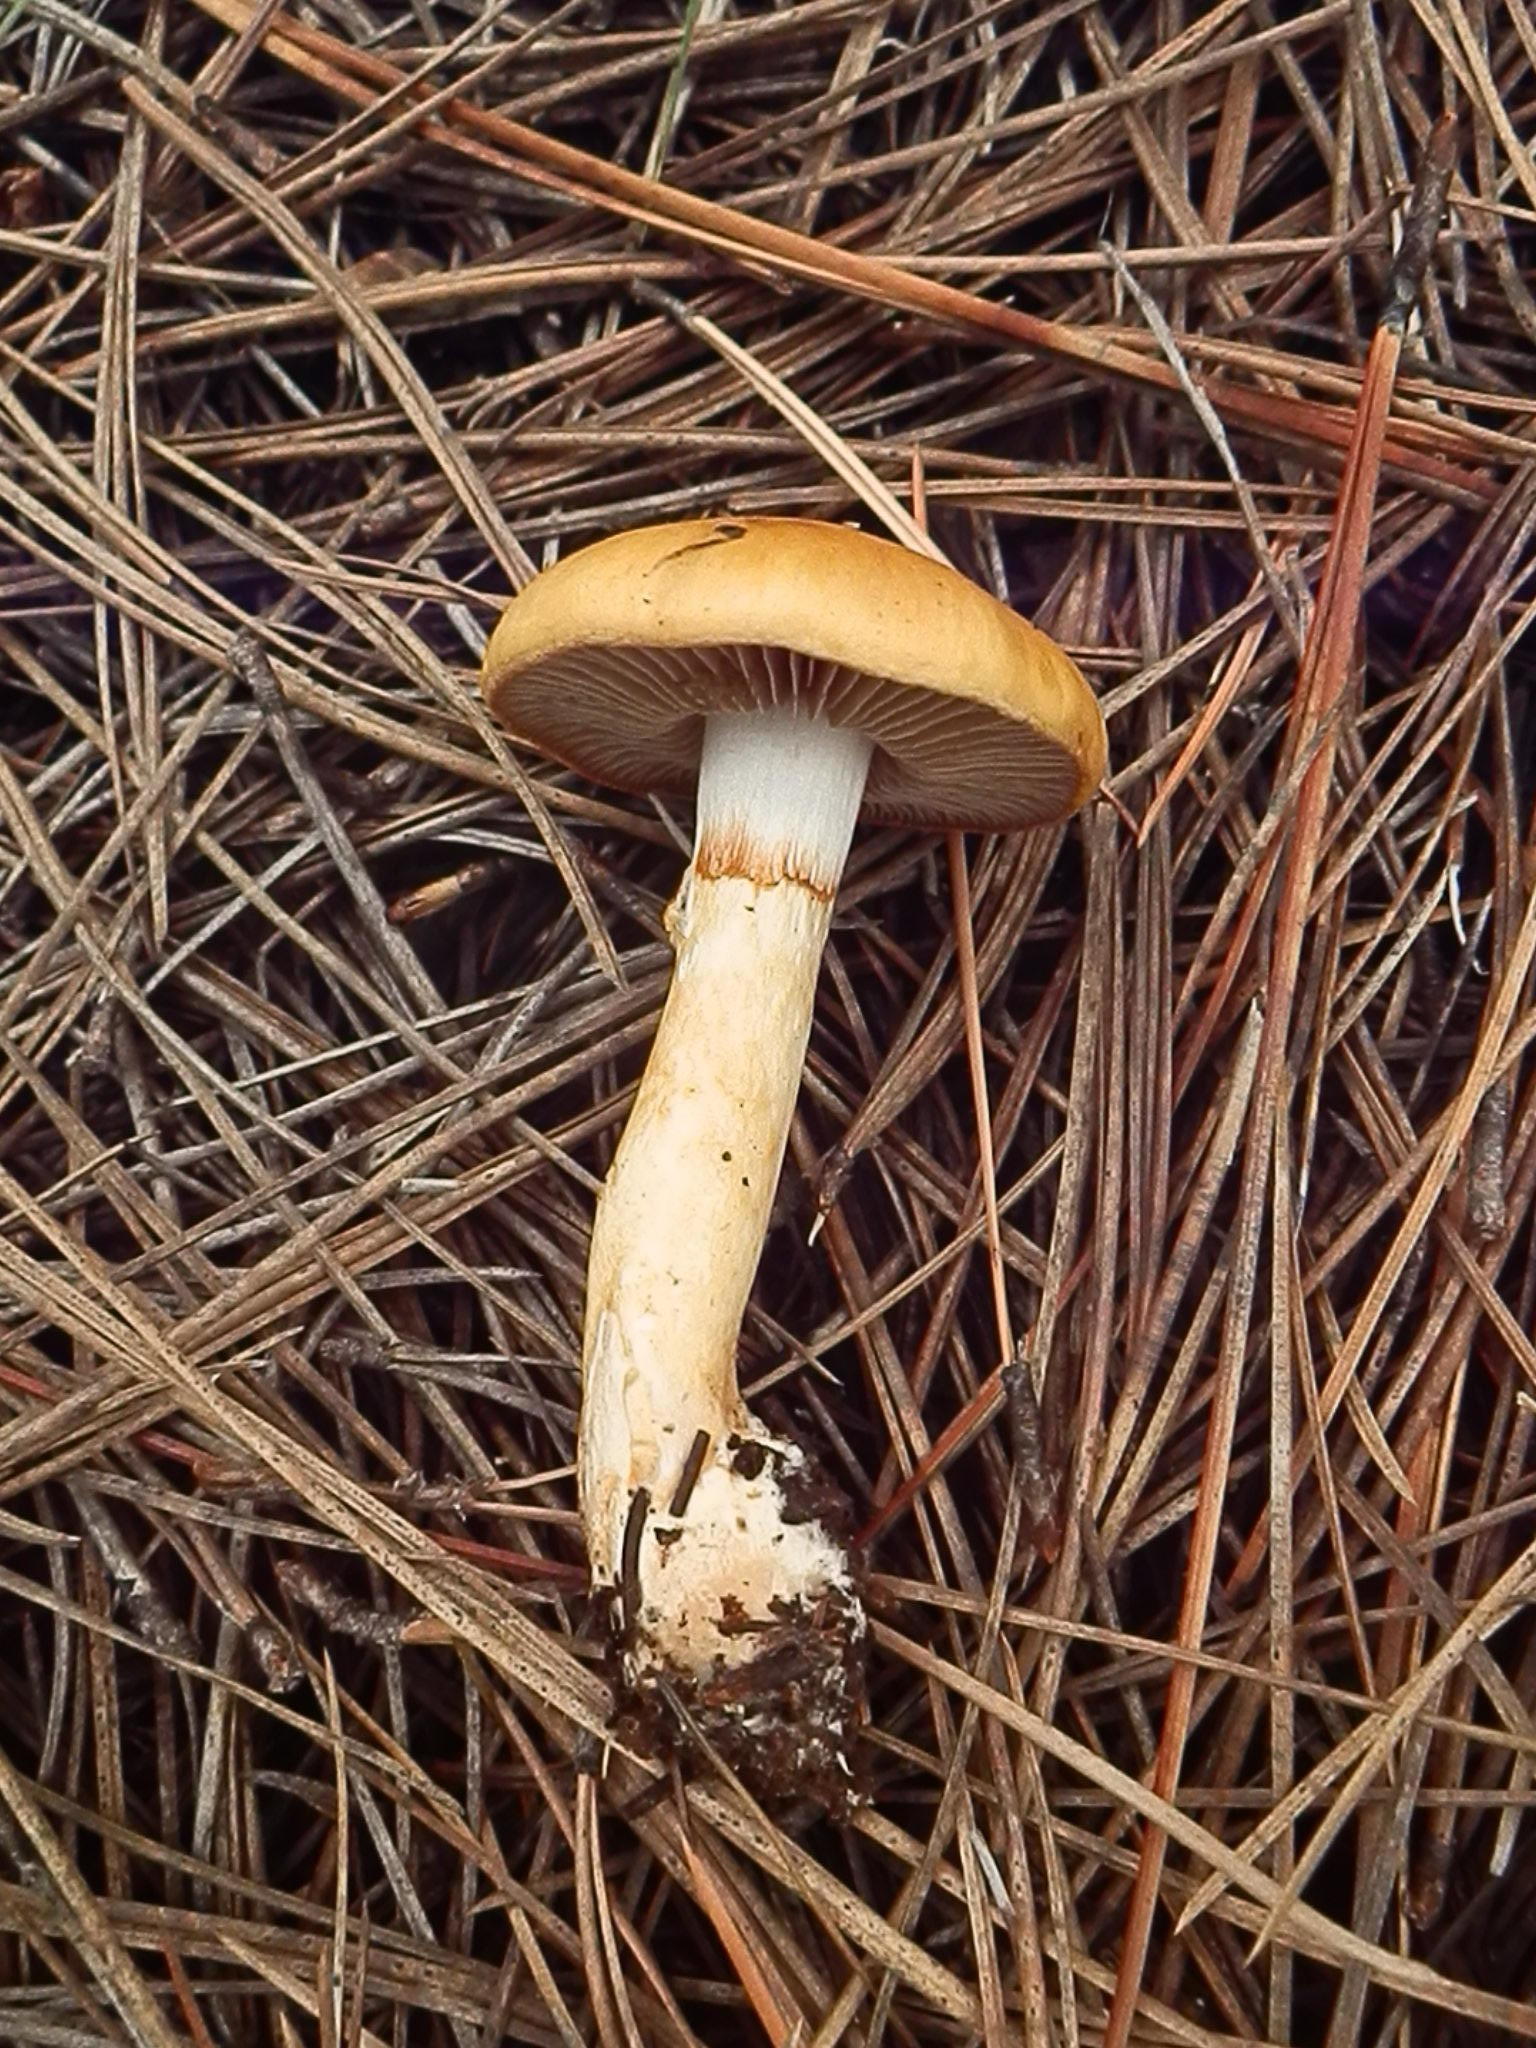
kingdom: Fungi
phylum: Basidiomycota
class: Agaricomycetes
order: Agaricales
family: Cortinariaceae
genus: Cortinarius
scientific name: Cortinarius delibutus
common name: Yellow webcap
